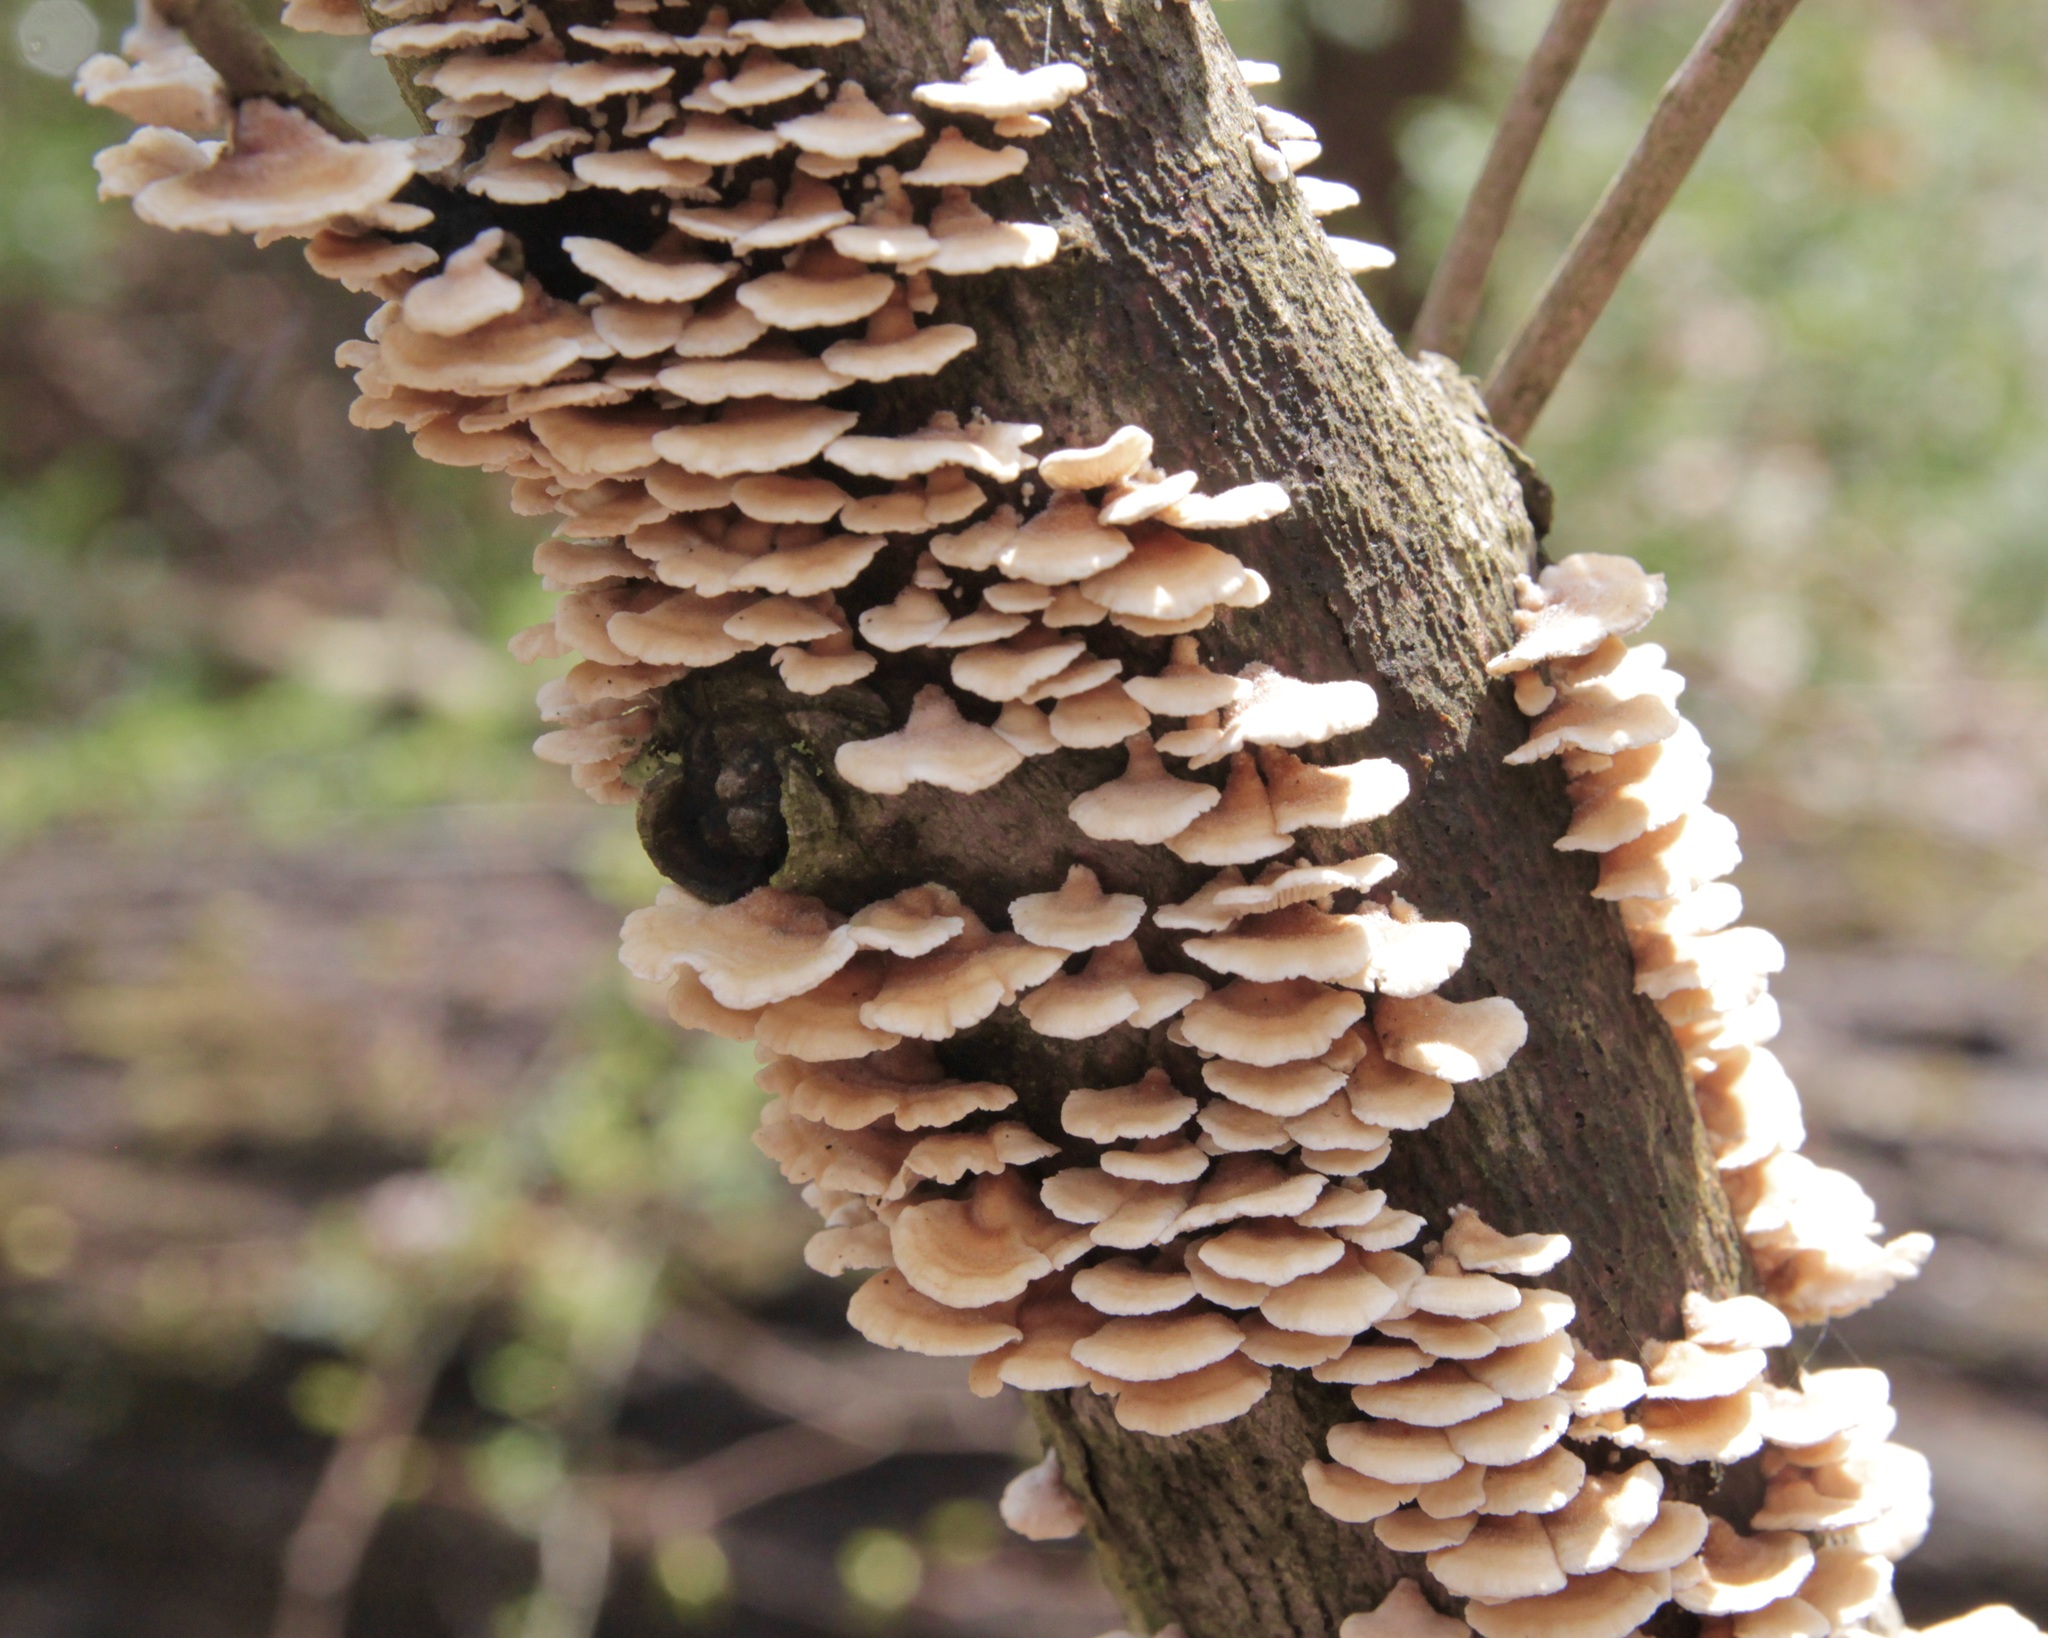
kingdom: Fungi
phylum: Basidiomycota
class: Agaricomycetes
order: Amylocorticiales
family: Amylocorticiaceae
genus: Plicaturopsis
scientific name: Plicaturopsis crispa
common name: Crimped gill
